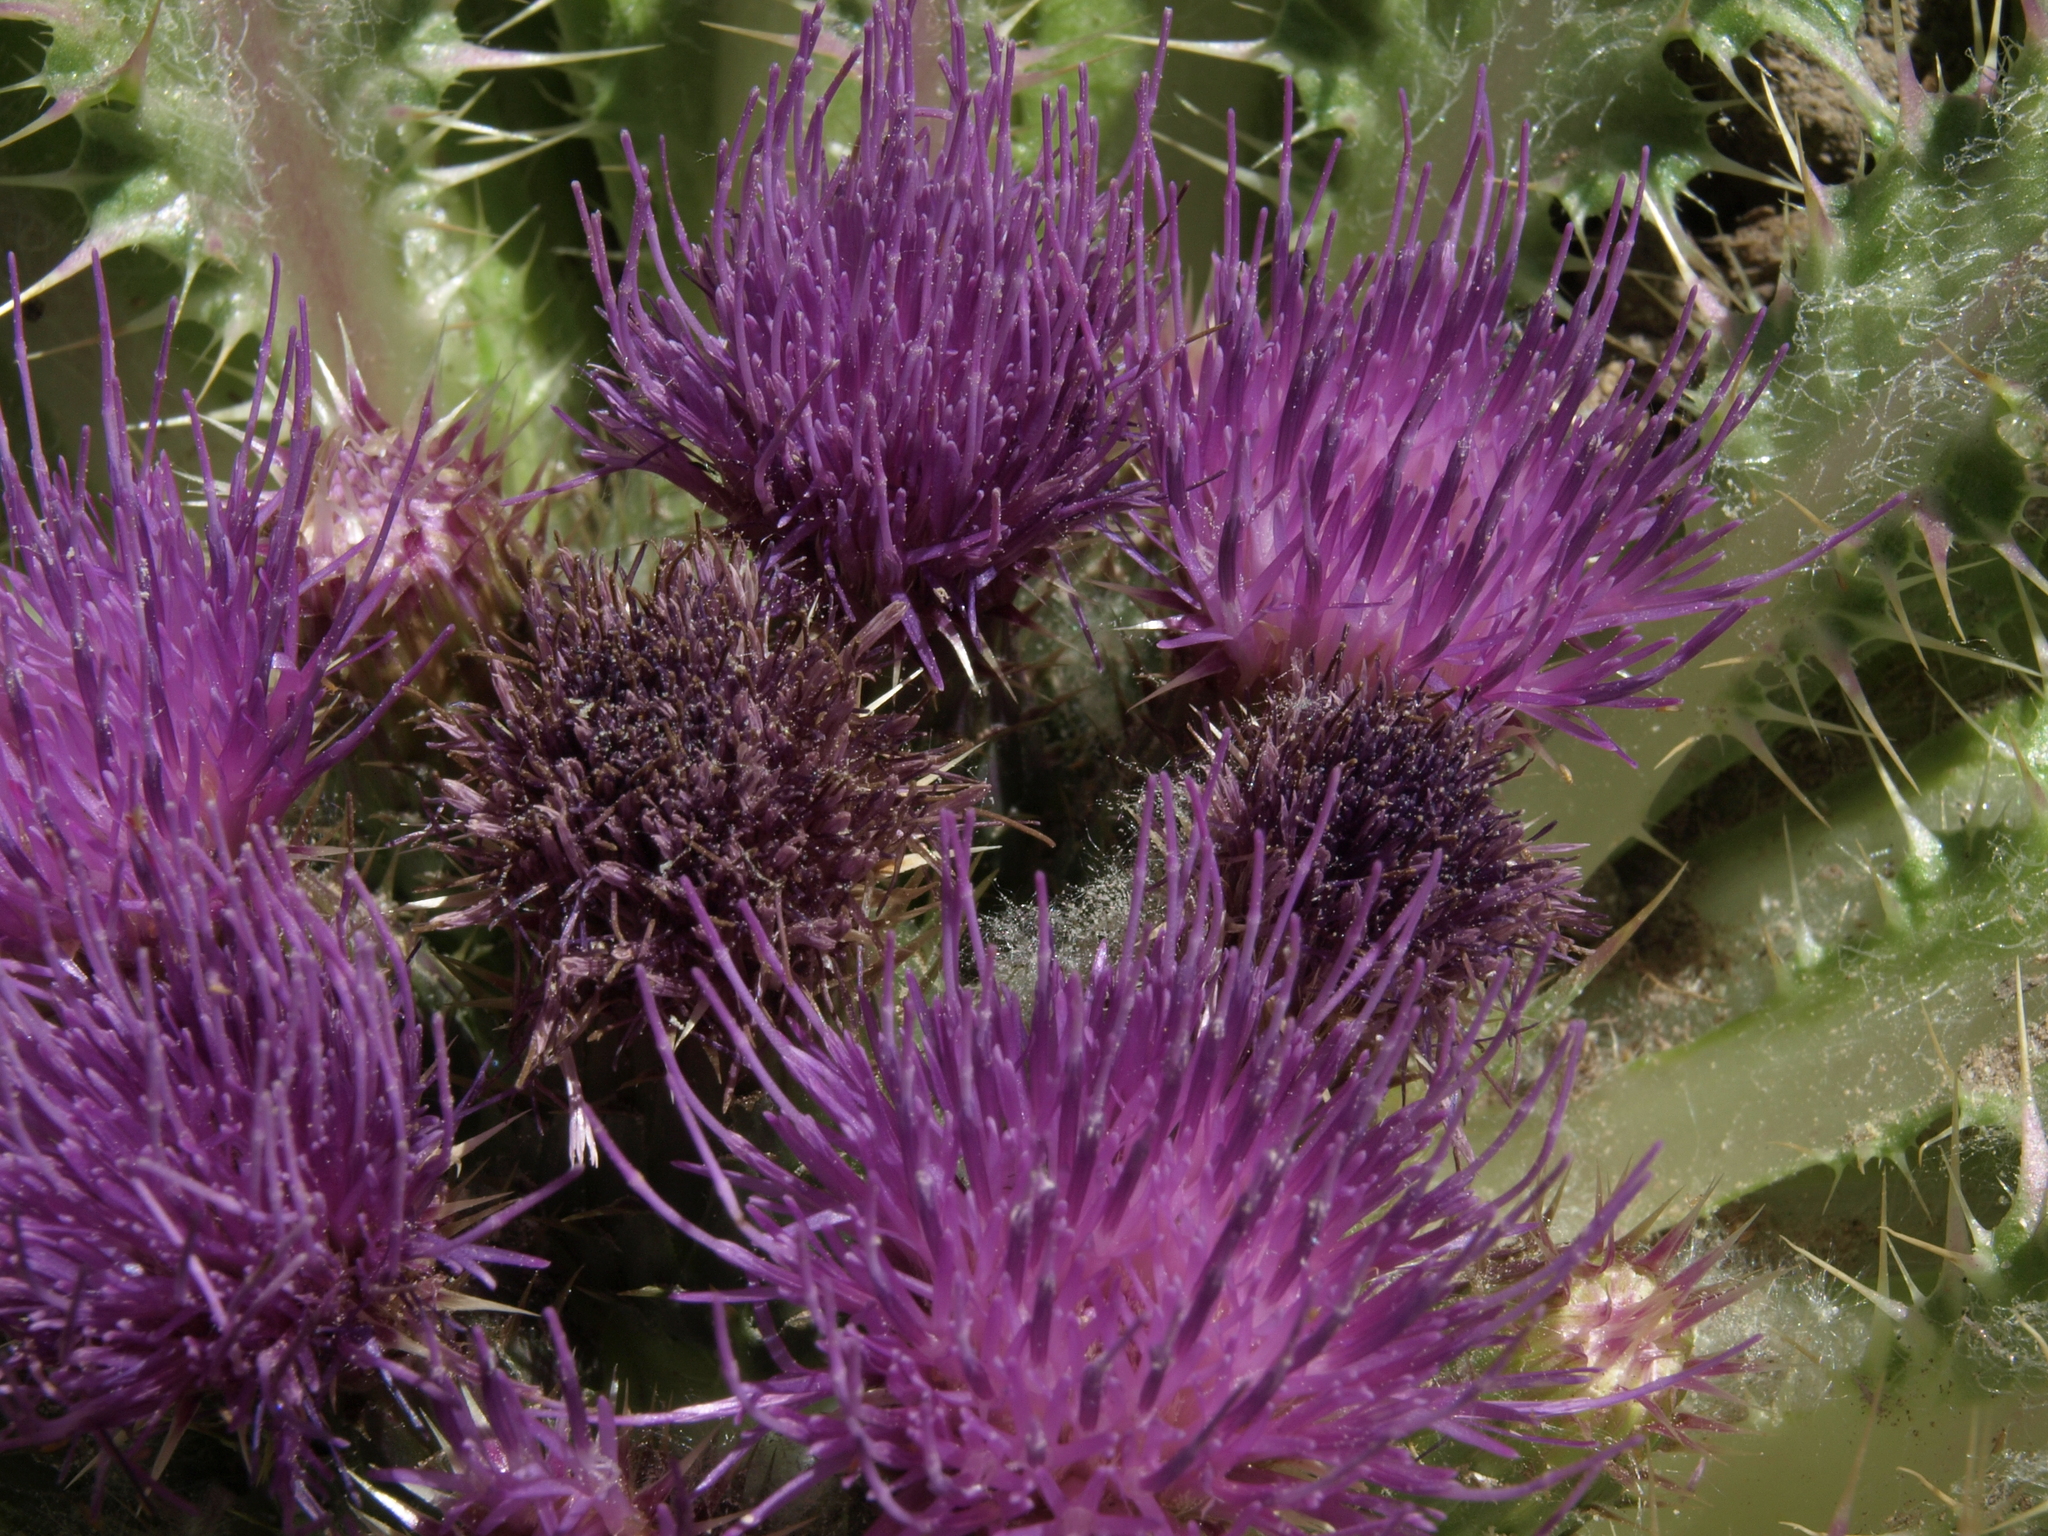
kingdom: Plantae
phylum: Tracheophyta
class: Magnoliopsida
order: Asterales
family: Asteraceae
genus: Cirsium
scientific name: Cirsium congdonii
